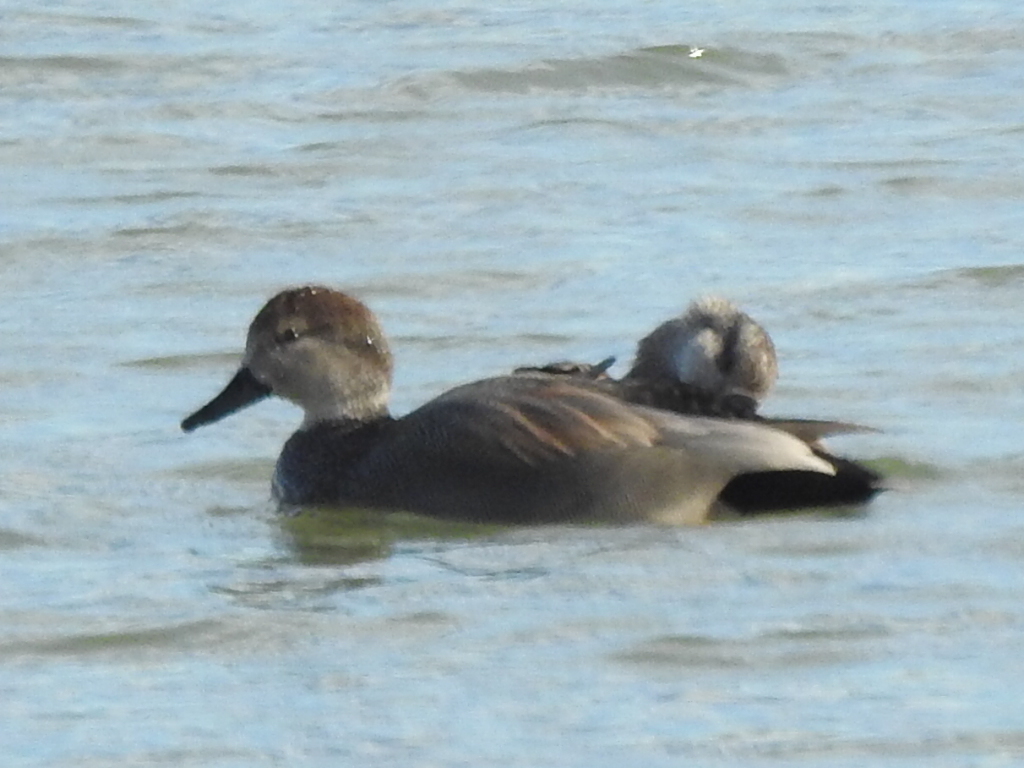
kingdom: Animalia
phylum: Chordata
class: Aves
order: Anseriformes
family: Anatidae
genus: Mareca
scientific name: Mareca strepera
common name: Gadwall
